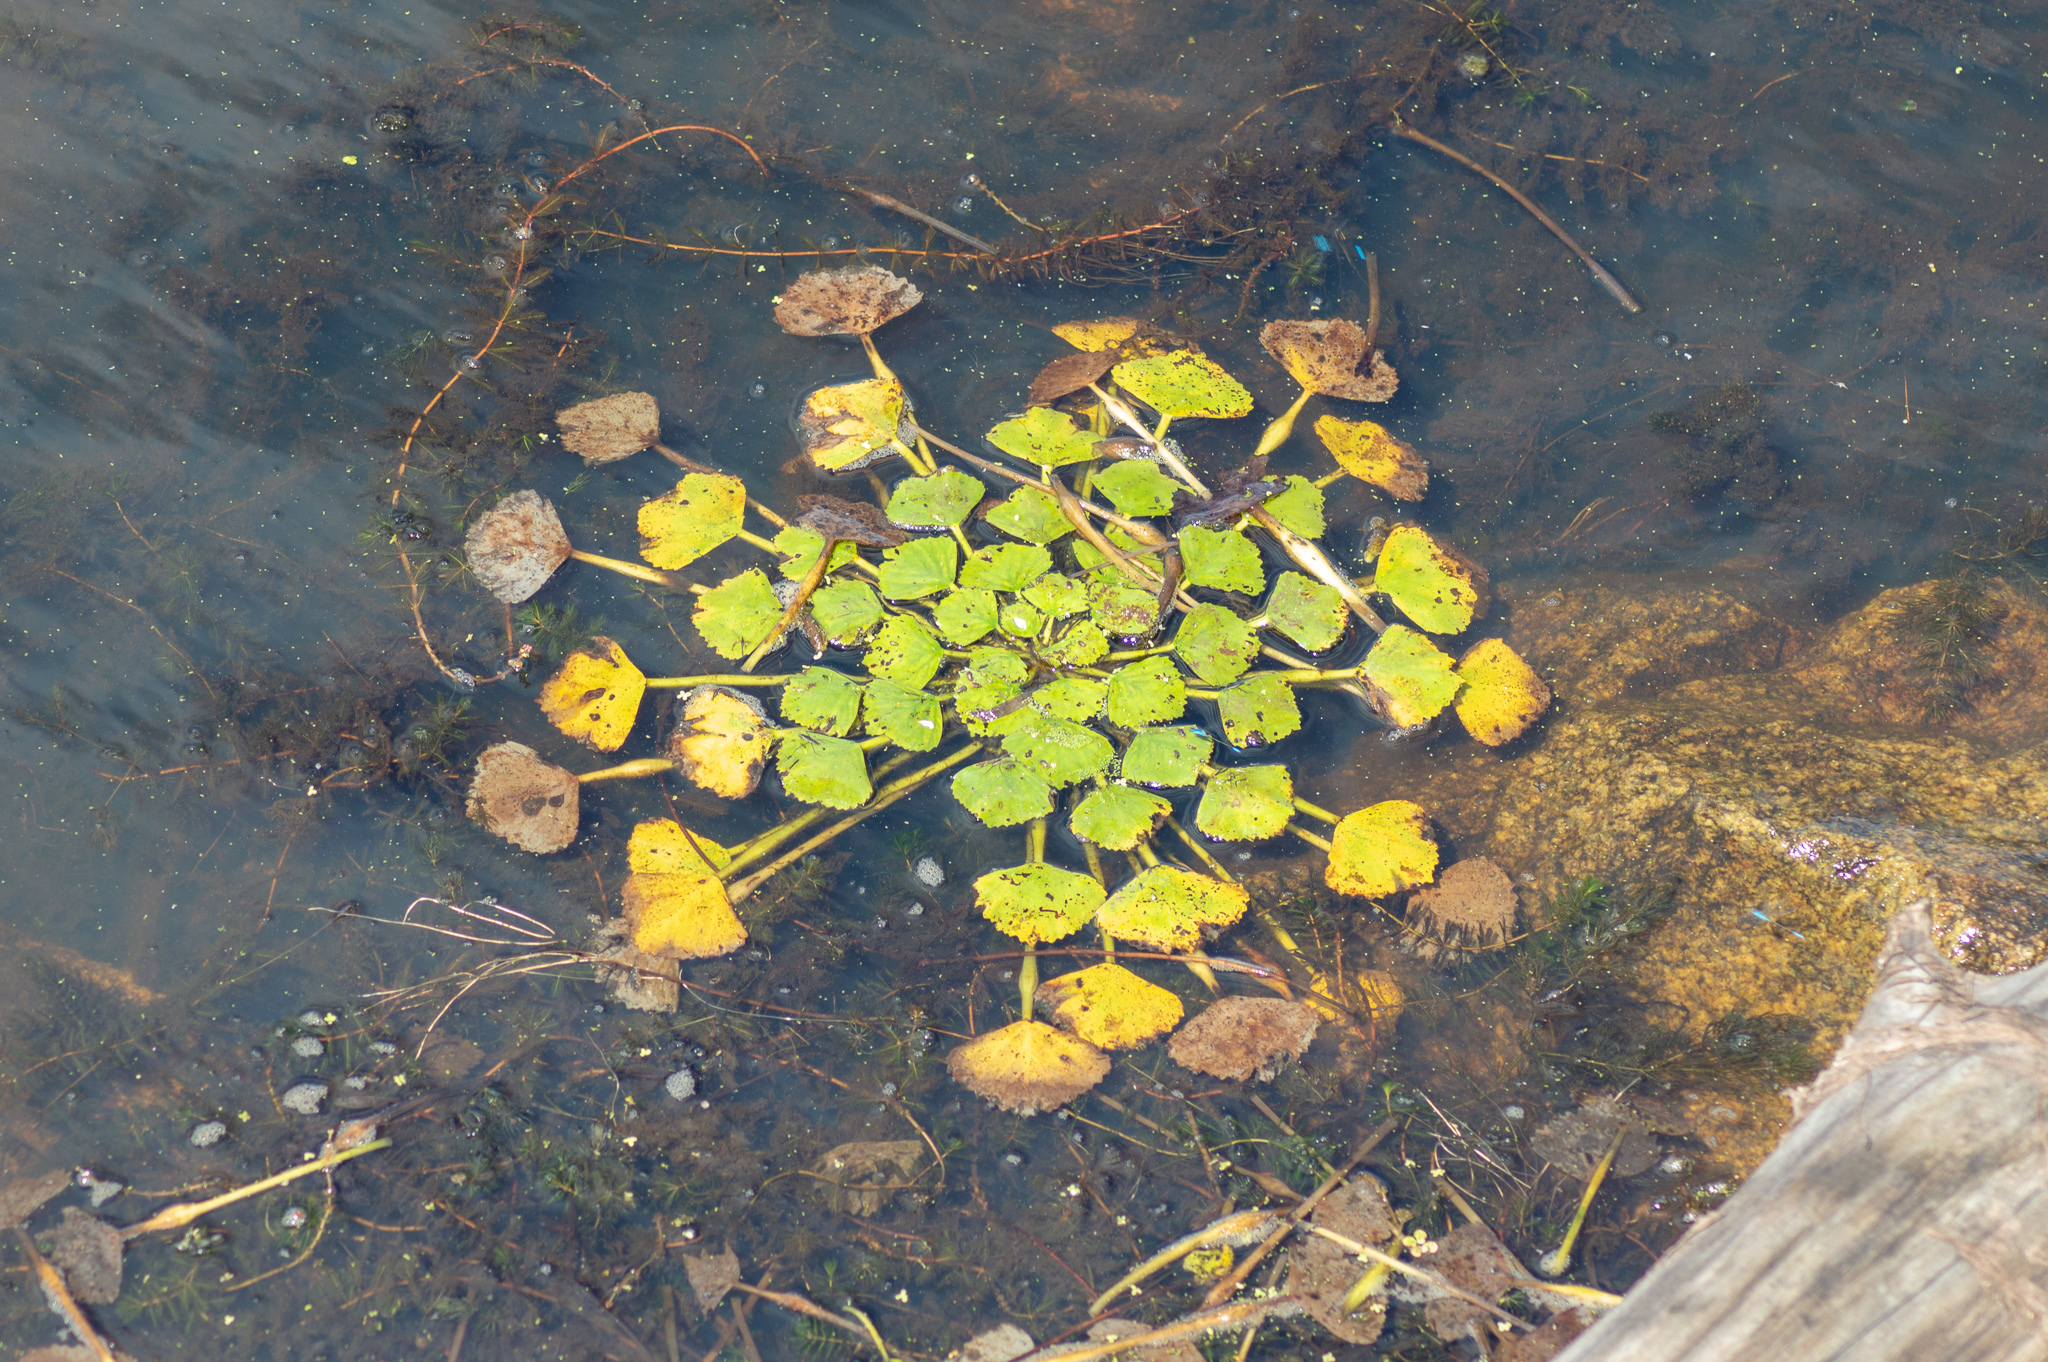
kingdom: Plantae
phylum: Tracheophyta
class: Magnoliopsida
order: Myrtales
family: Lythraceae
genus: Trapa
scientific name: Trapa natans
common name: Water chestnut
